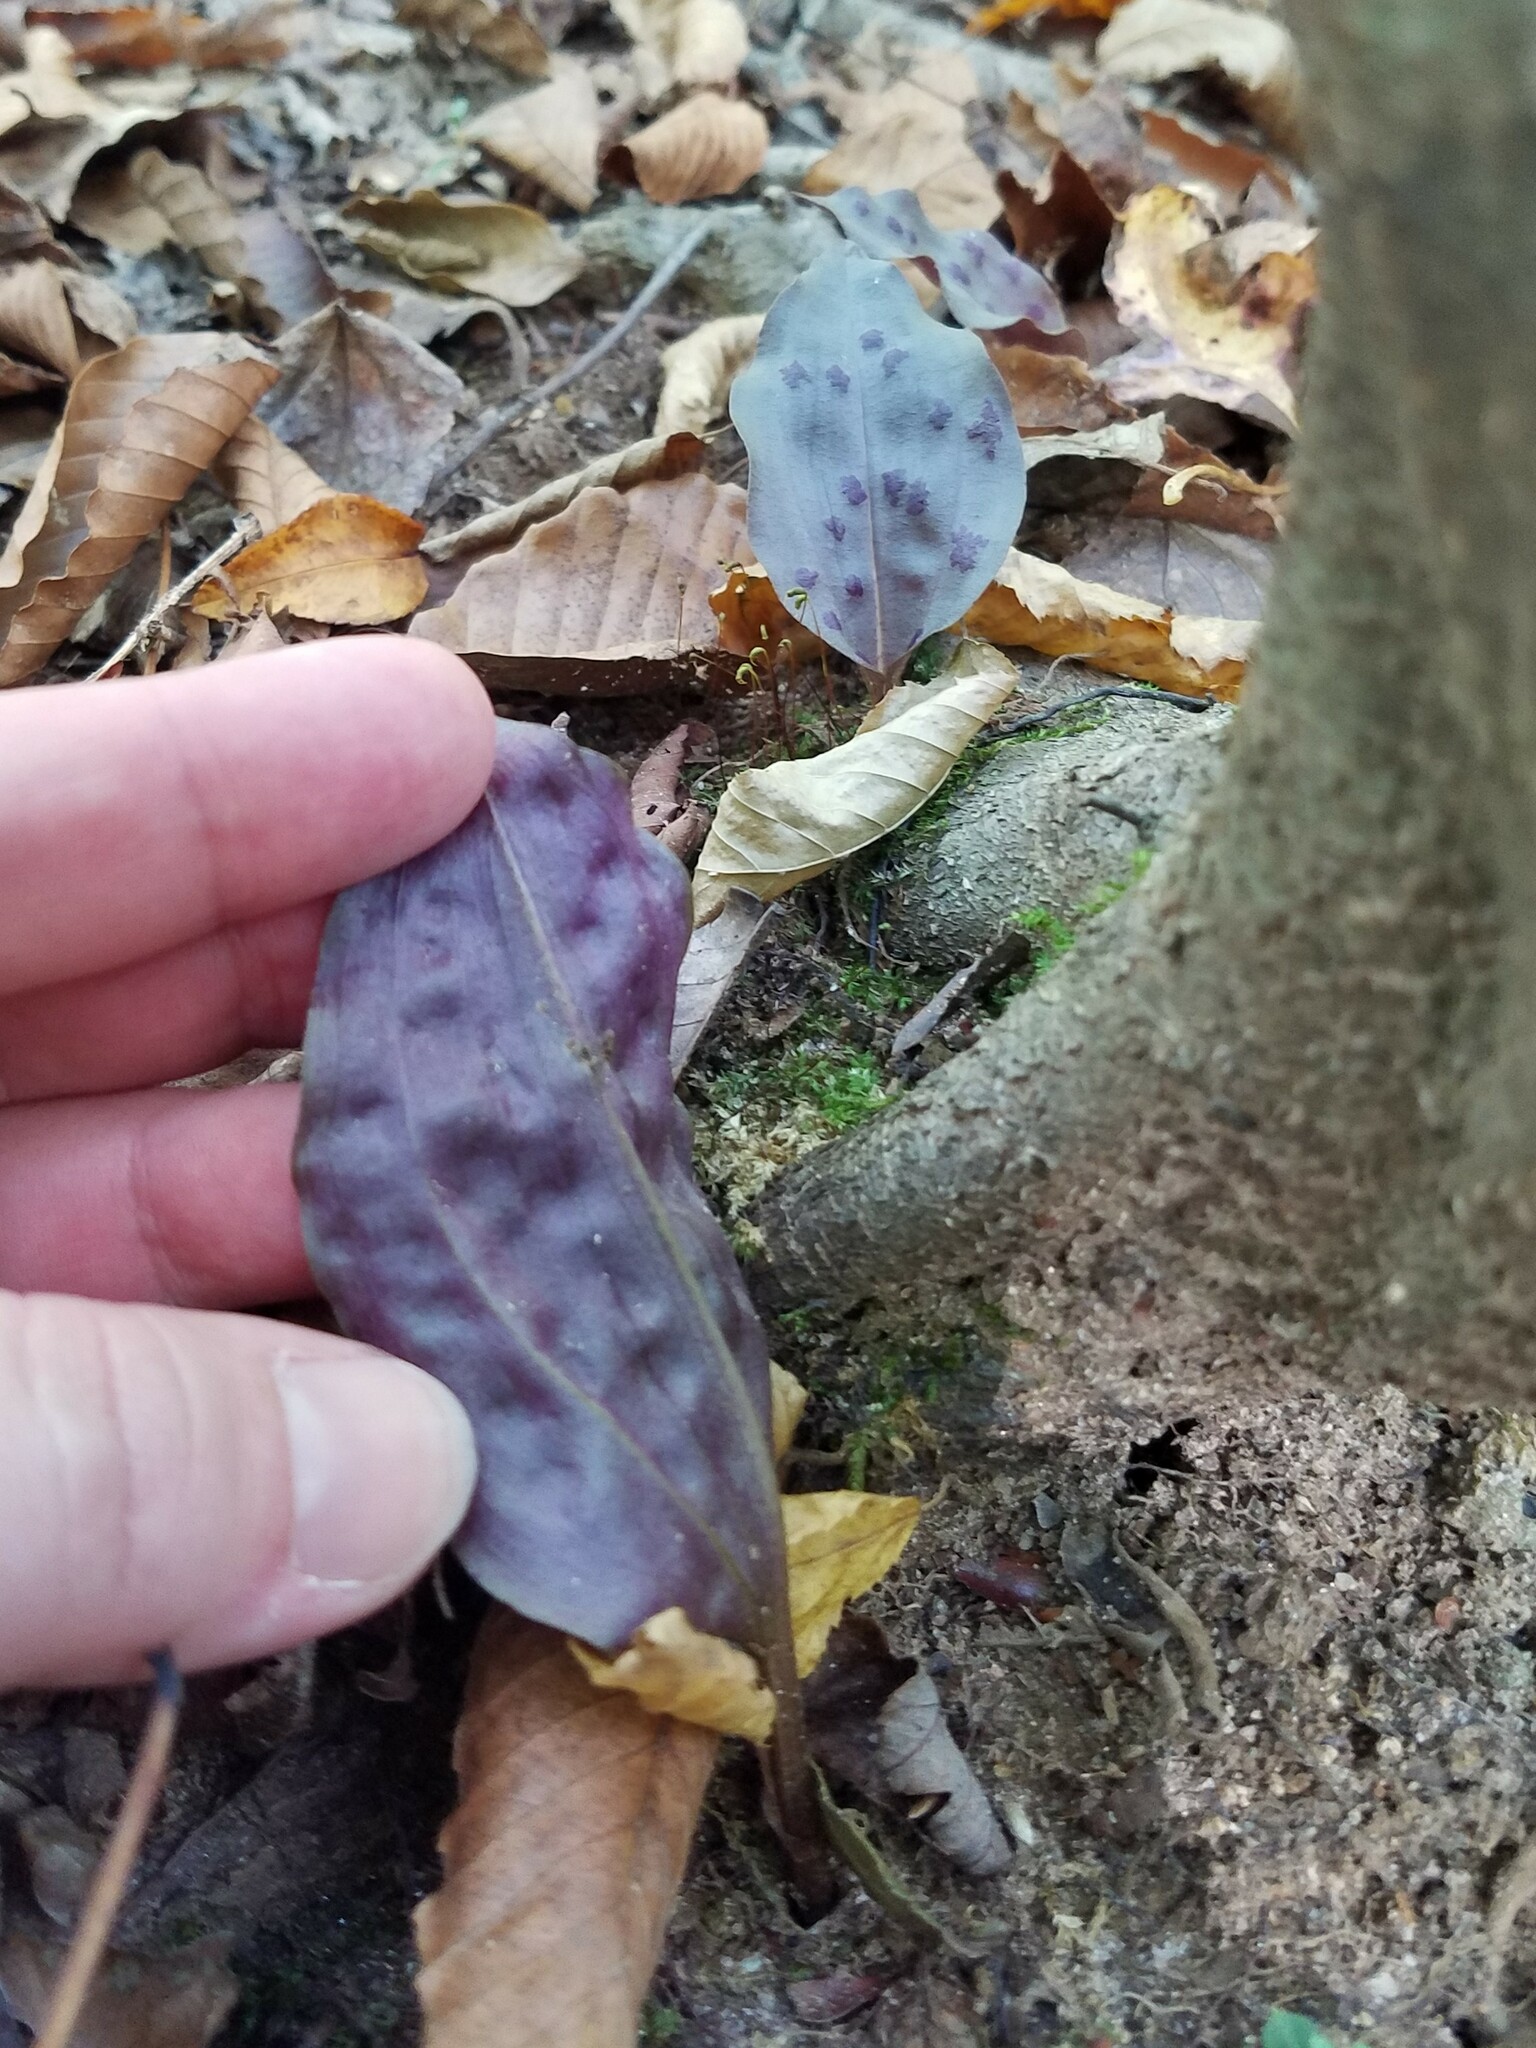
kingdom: Plantae
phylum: Tracheophyta
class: Liliopsida
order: Asparagales
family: Orchidaceae
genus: Tipularia
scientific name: Tipularia discolor
